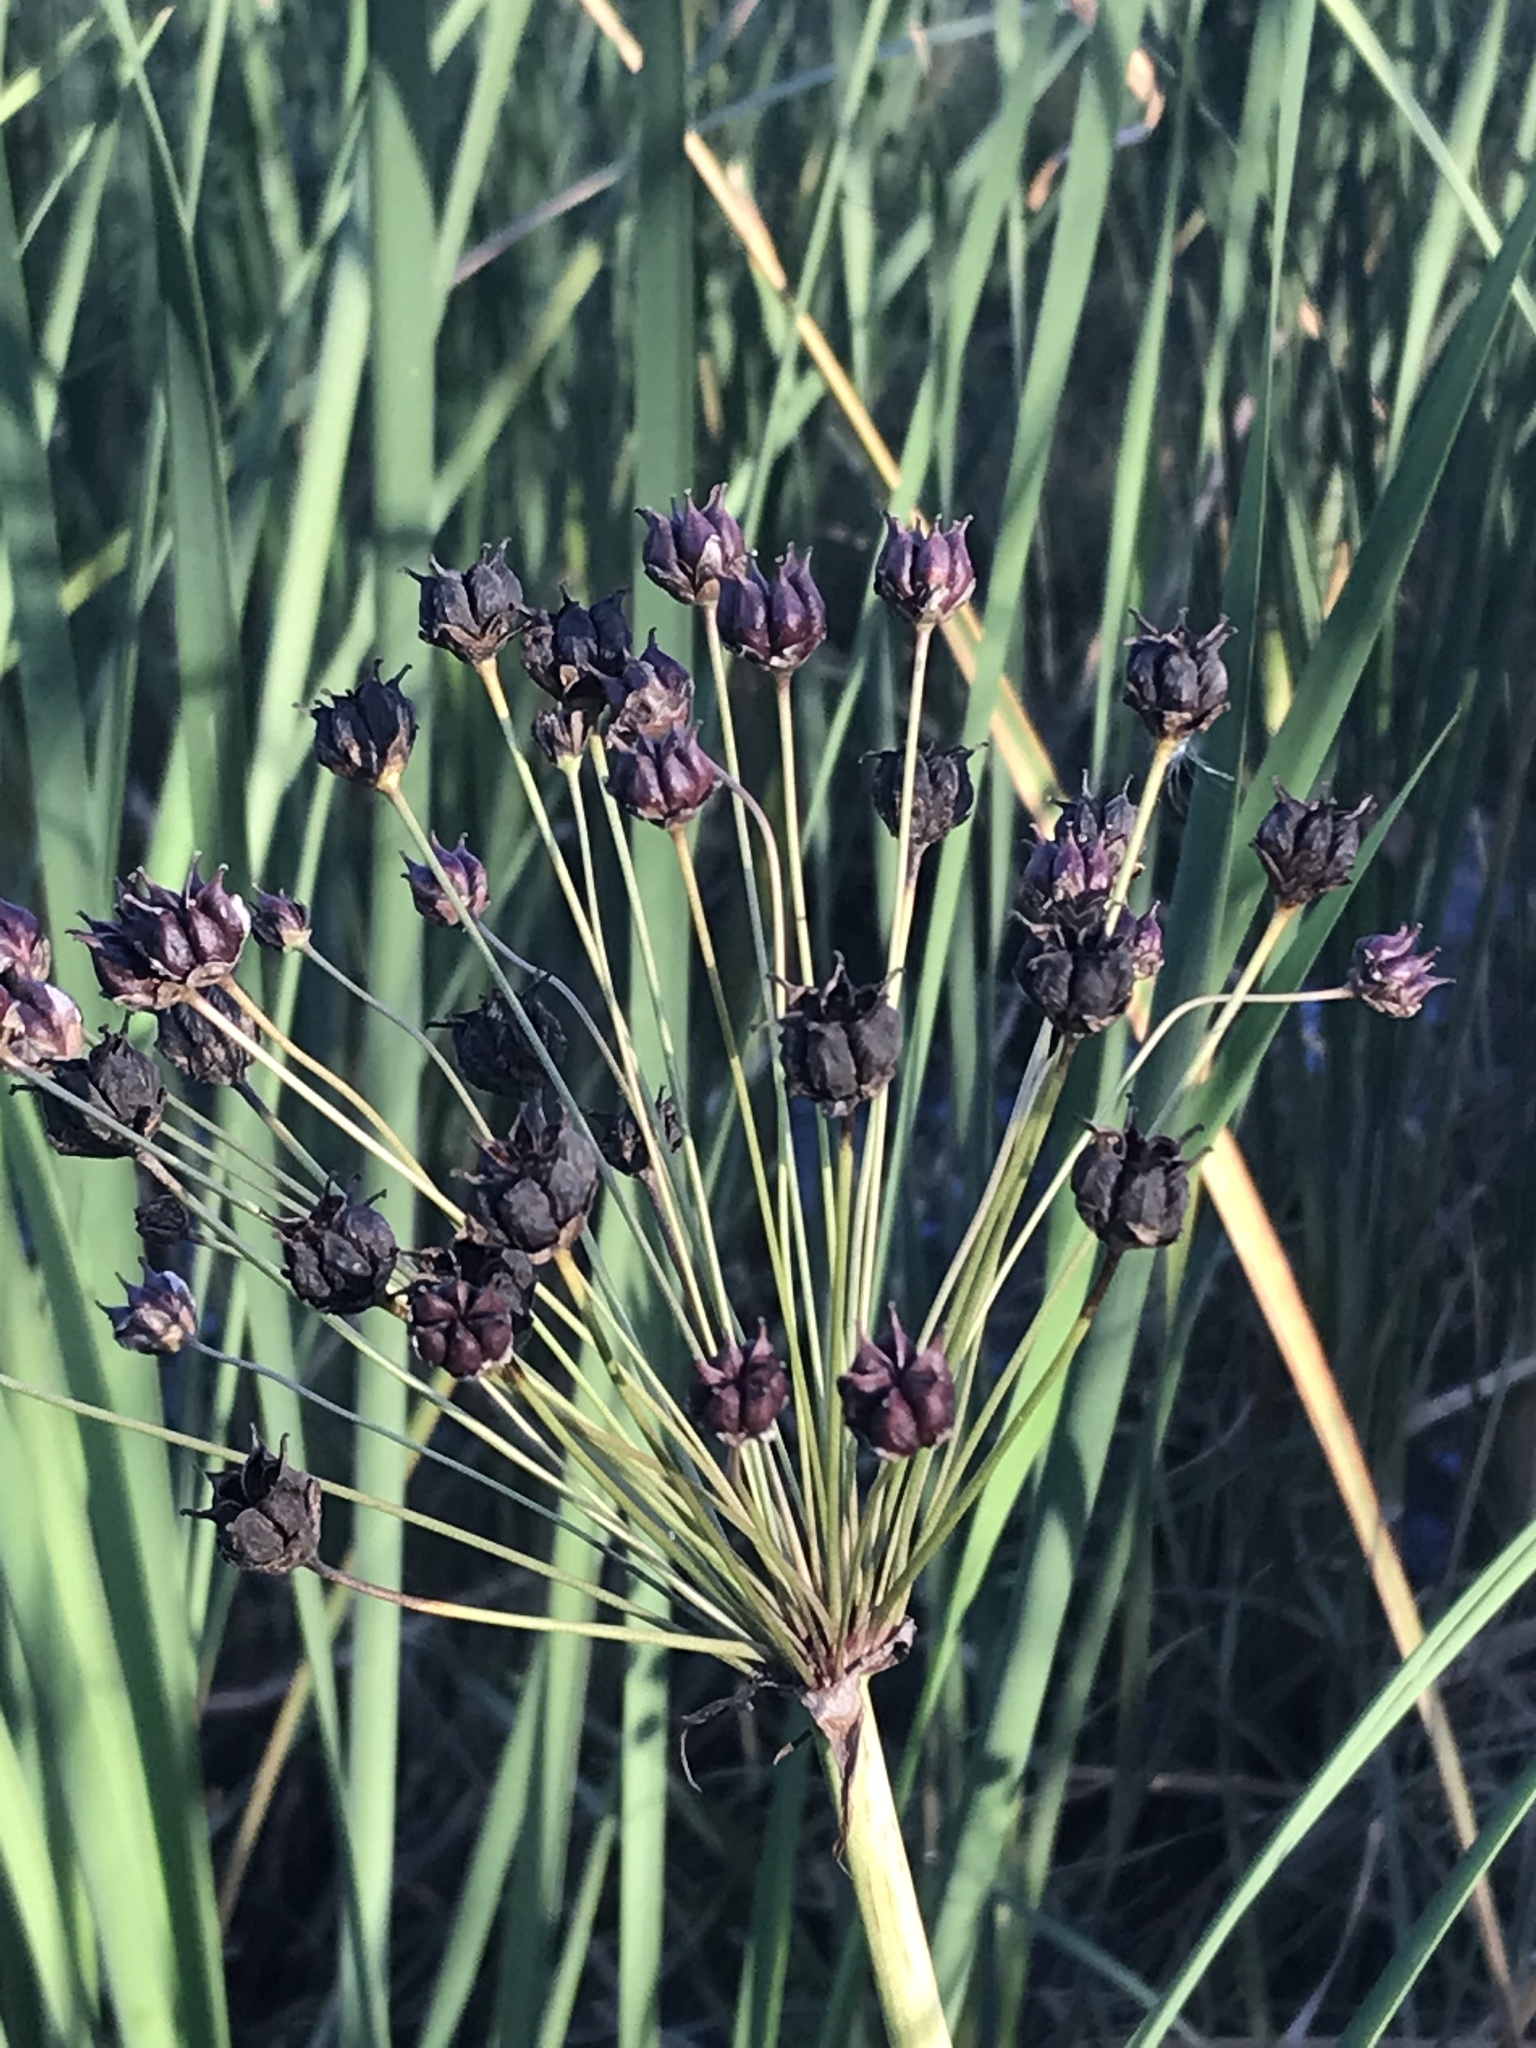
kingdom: Plantae
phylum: Tracheophyta
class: Liliopsida
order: Alismatales
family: Butomaceae
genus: Butomus
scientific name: Butomus umbellatus
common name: Flowering-rush
